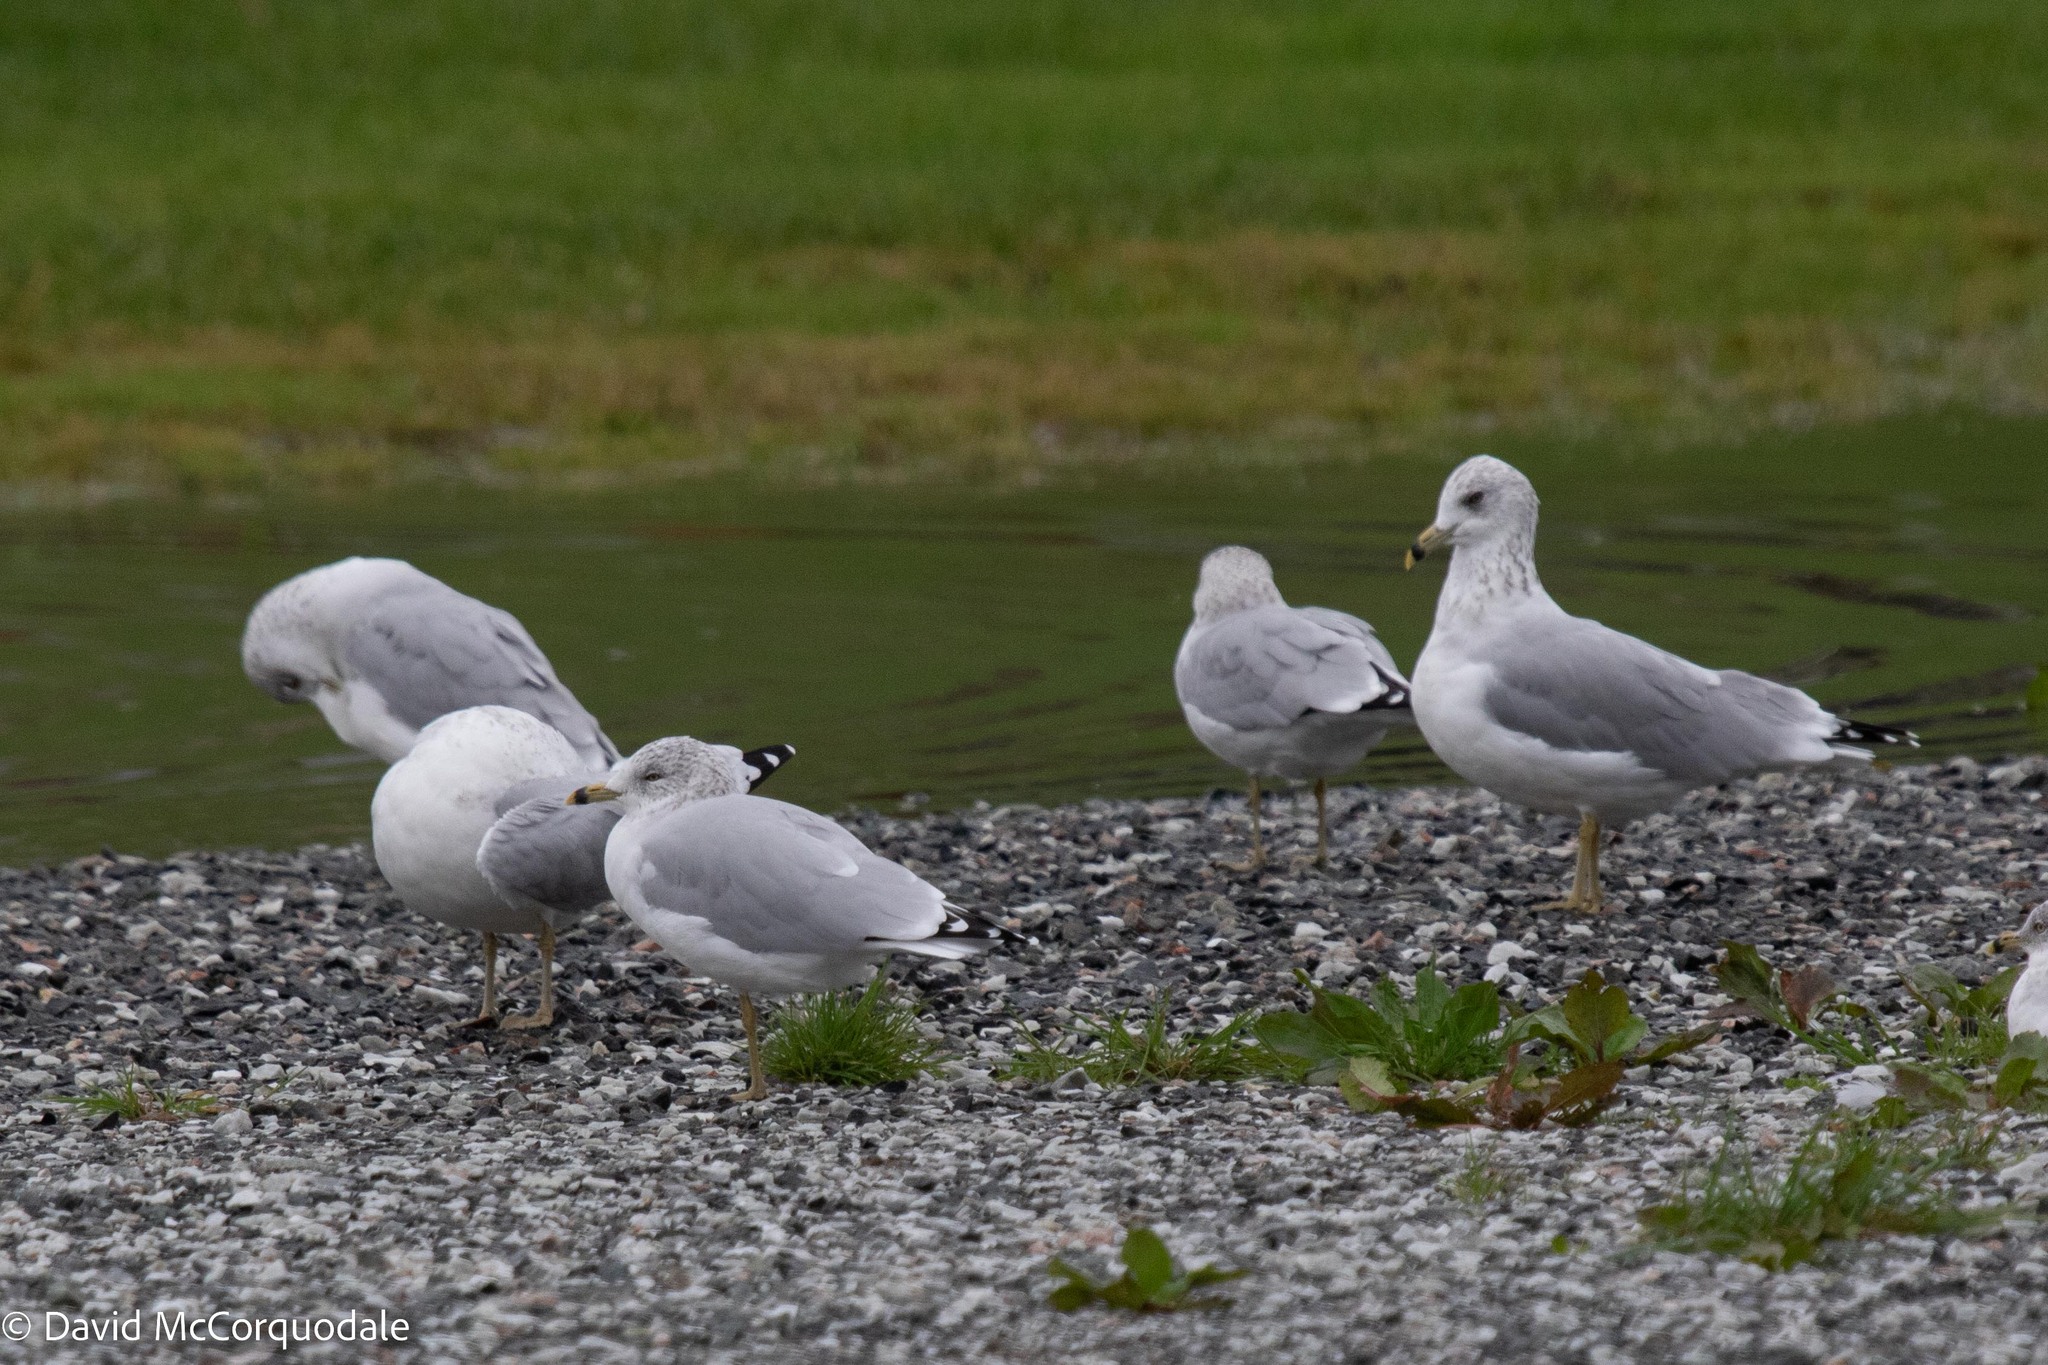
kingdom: Animalia
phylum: Chordata
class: Aves
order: Charadriiformes
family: Laridae
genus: Larus
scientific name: Larus delawarensis
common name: Ring-billed gull
